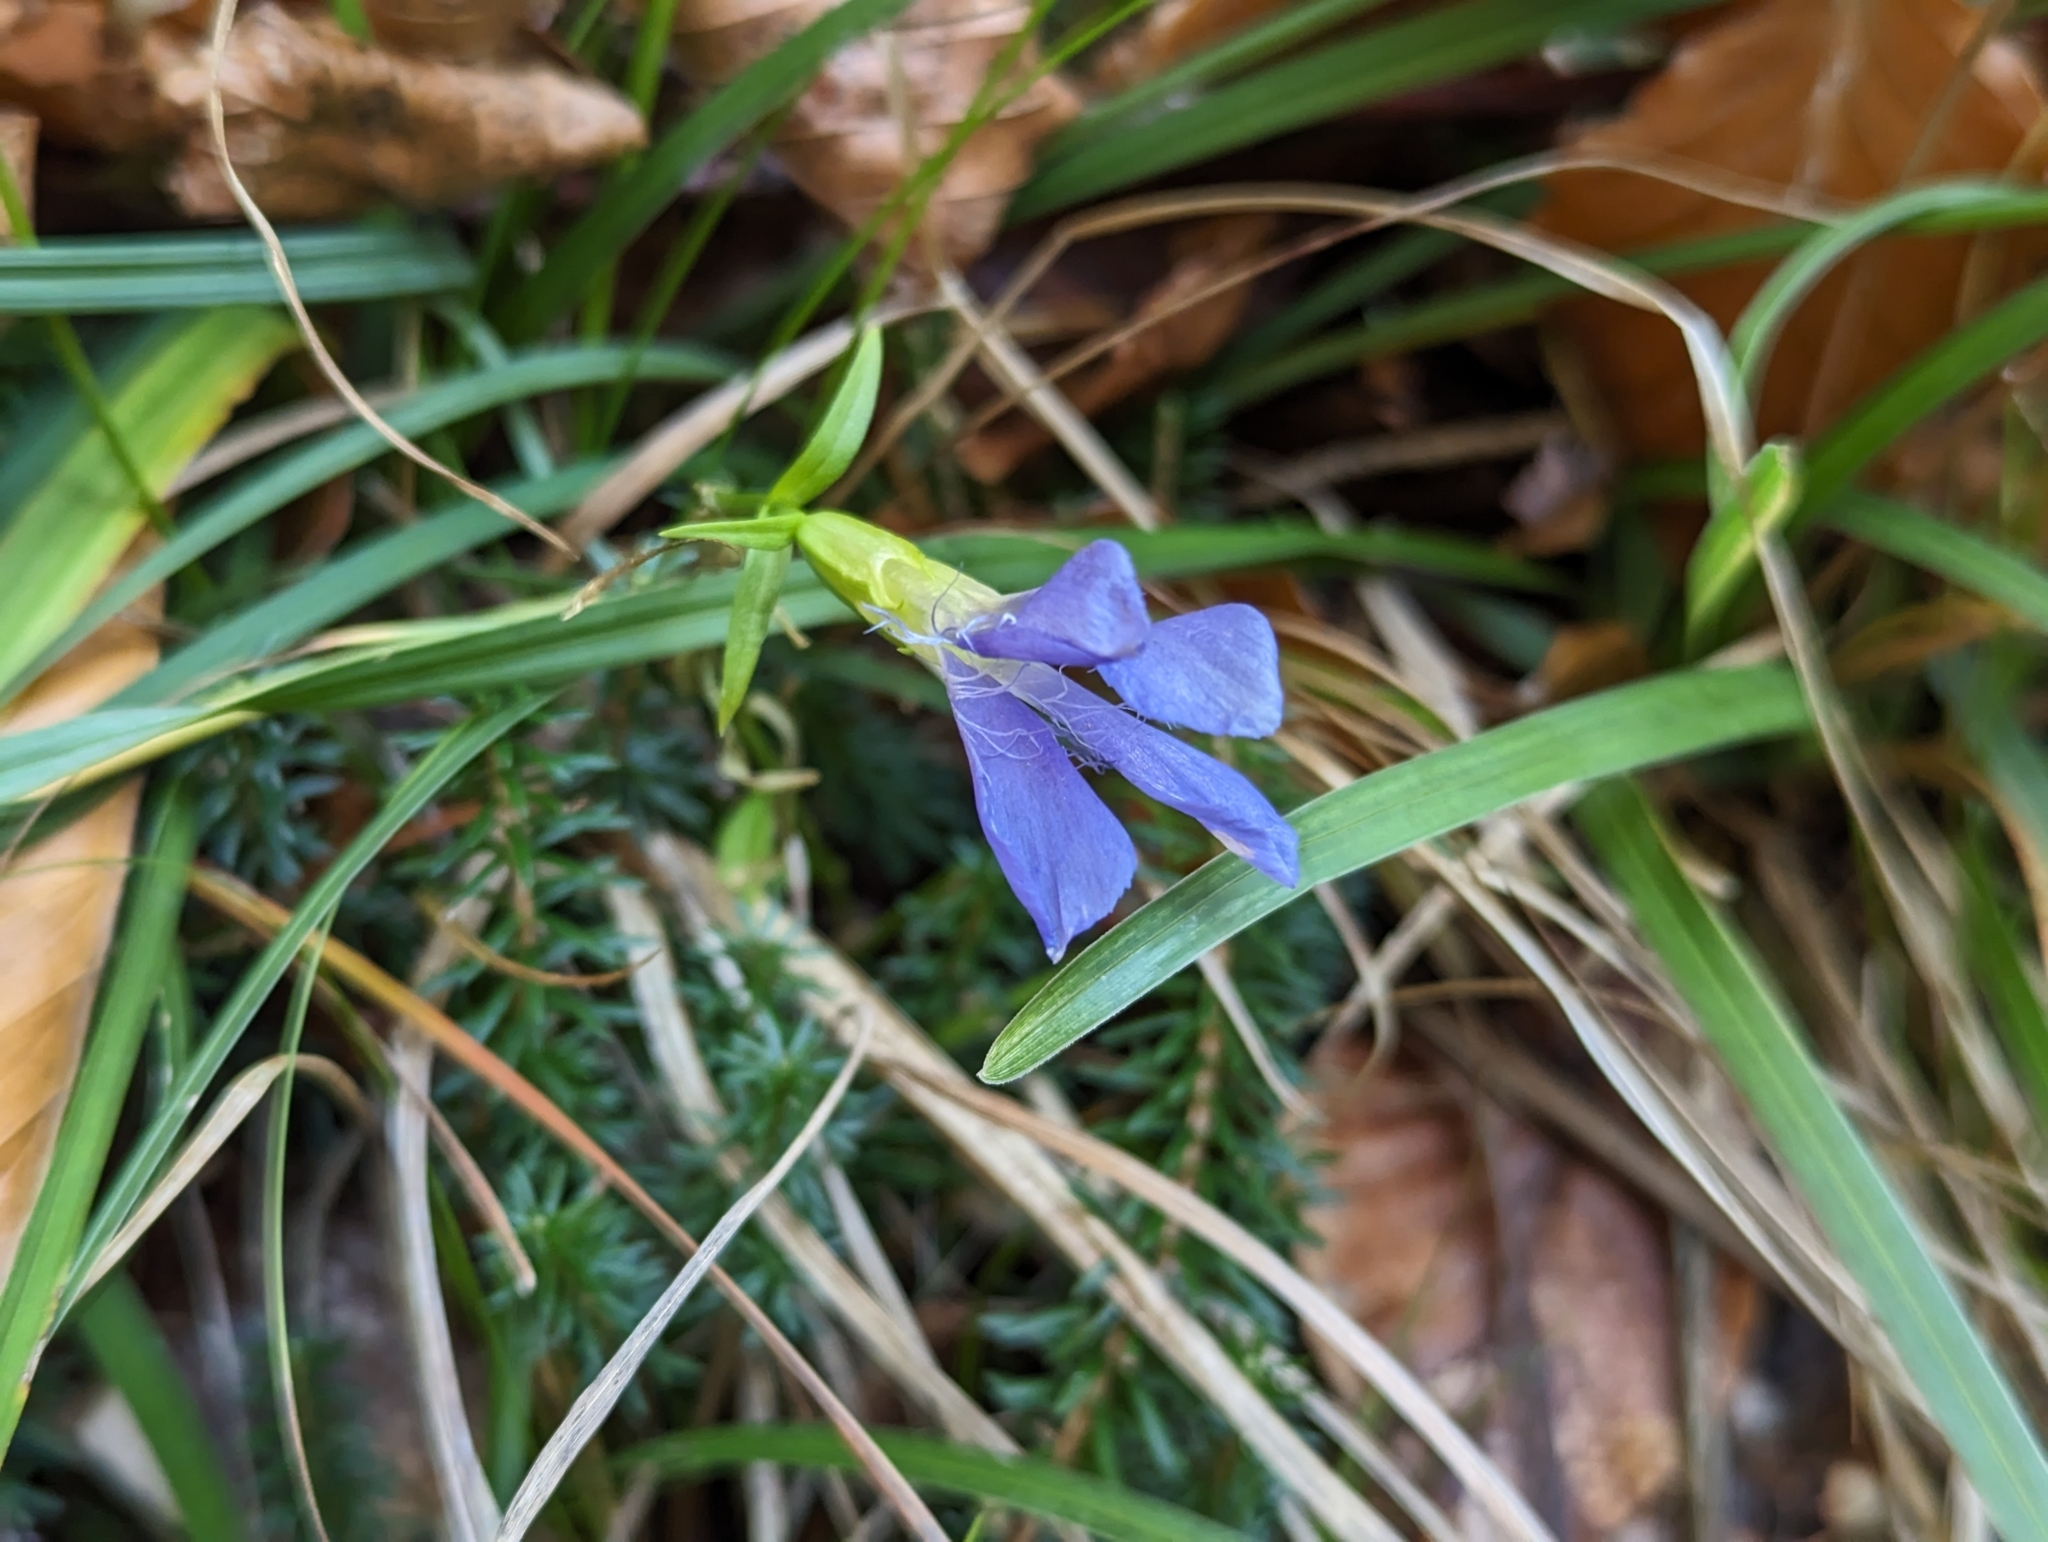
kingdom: Plantae
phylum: Tracheophyta
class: Magnoliopsida
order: Gentianales
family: Gentianaceae
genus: Gentianopsis
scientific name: Gentianopsis ciliata
